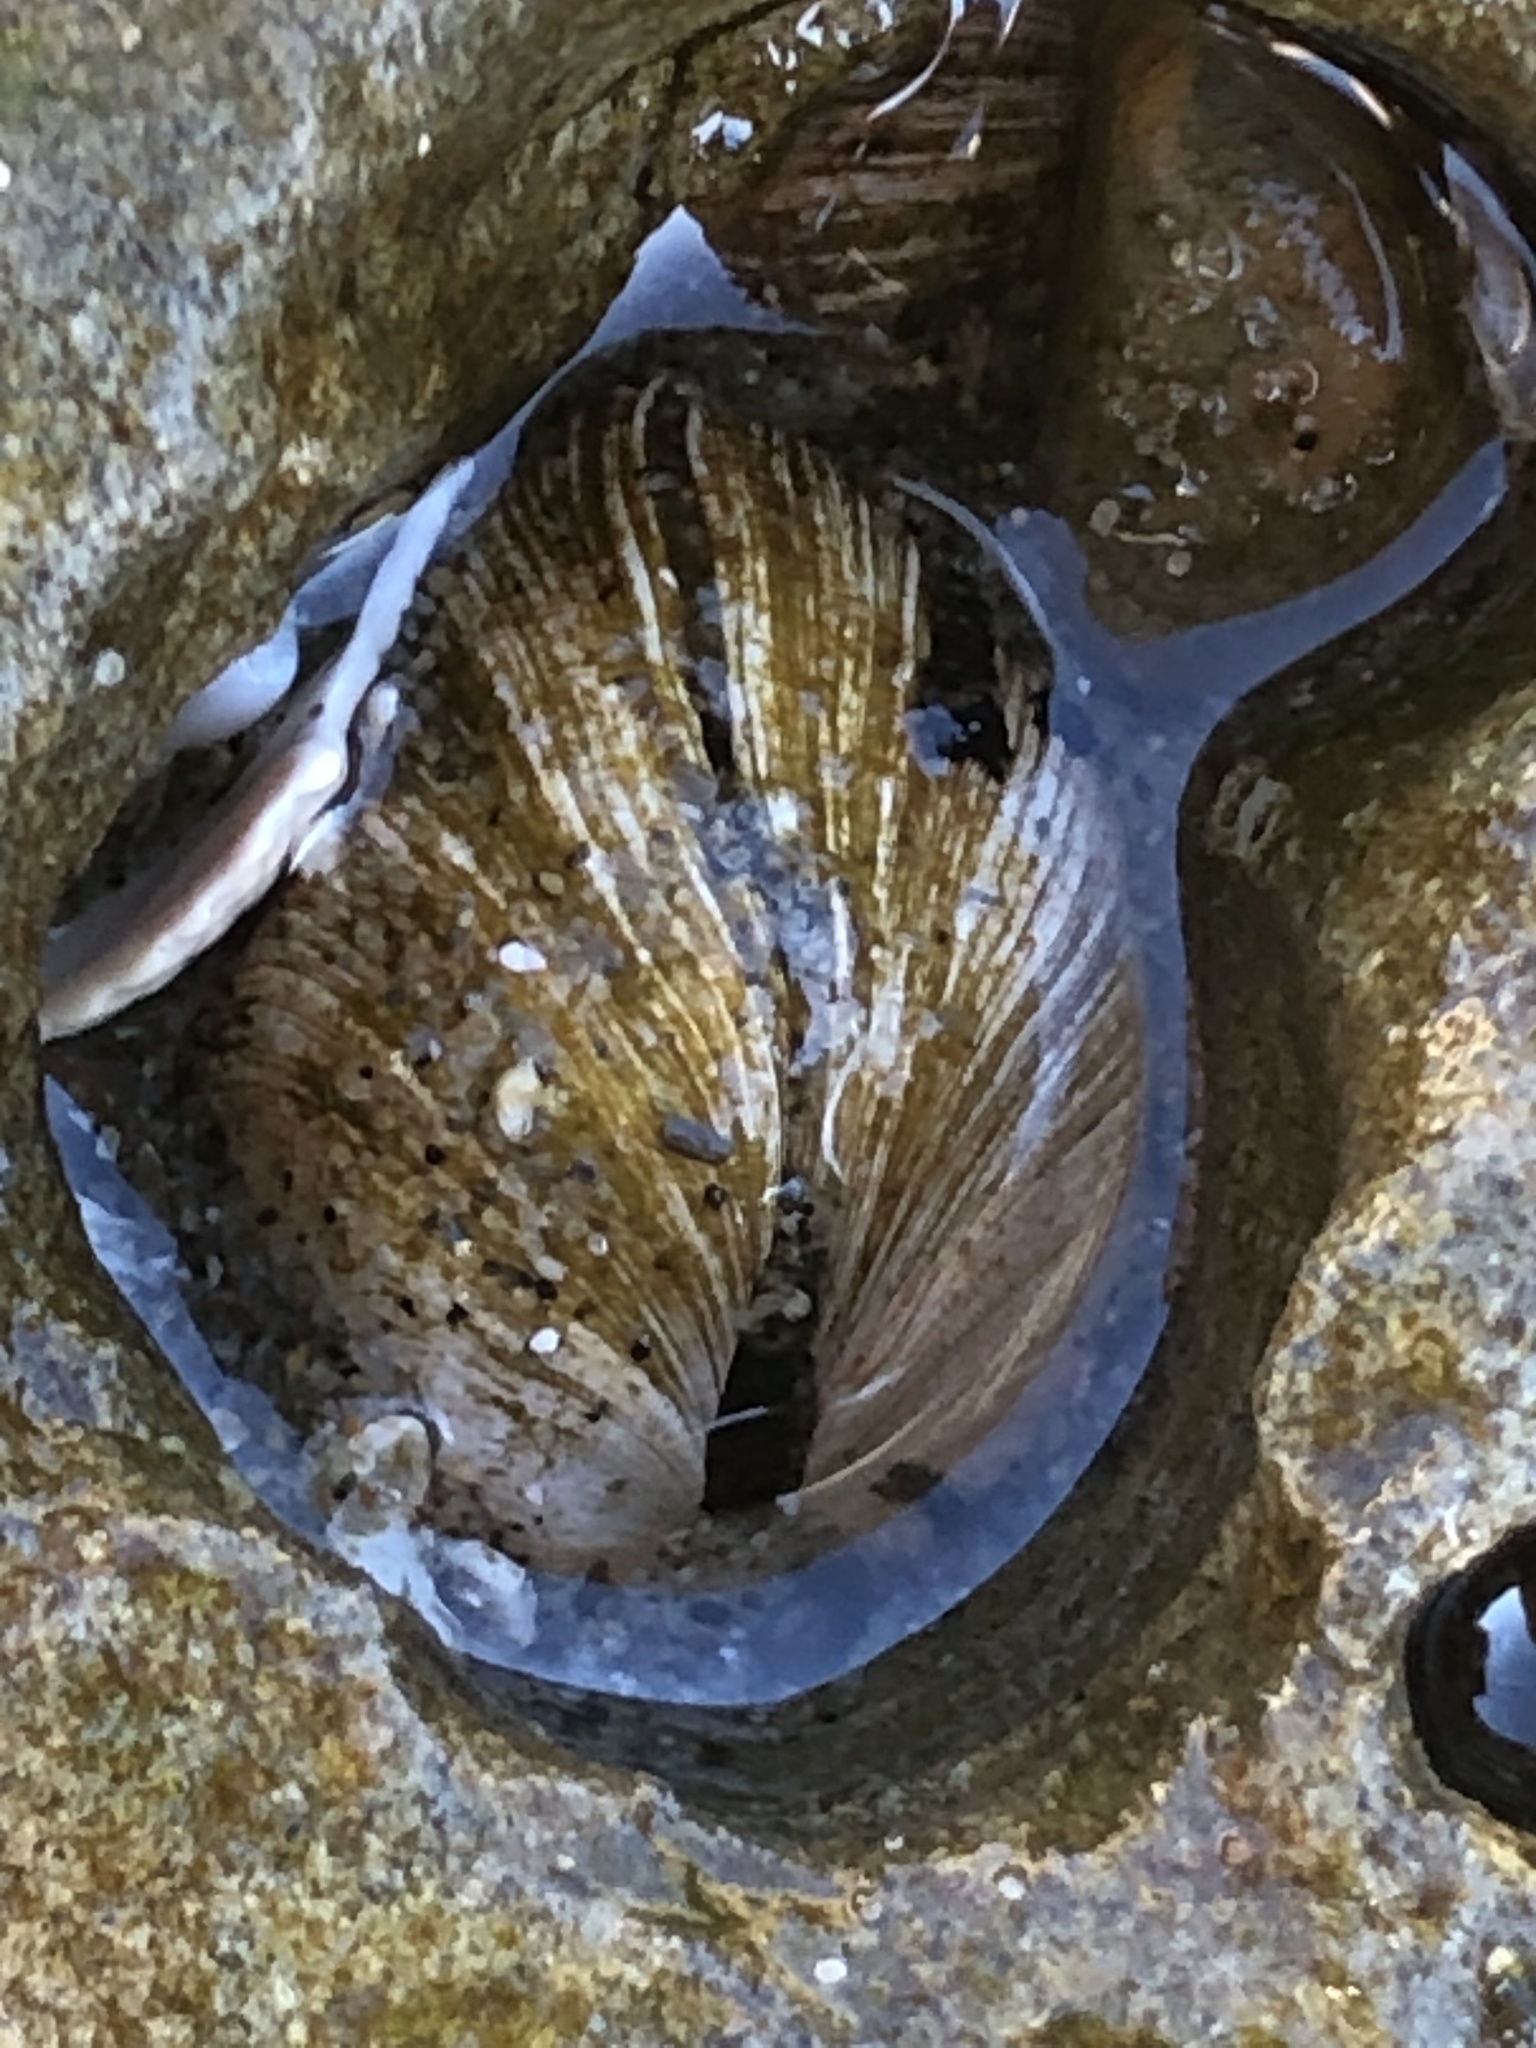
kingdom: Animalia
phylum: Mollusca
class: Bivalvia
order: Venerida
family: Veneridae
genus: Petricola
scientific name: Petricola carditoides
